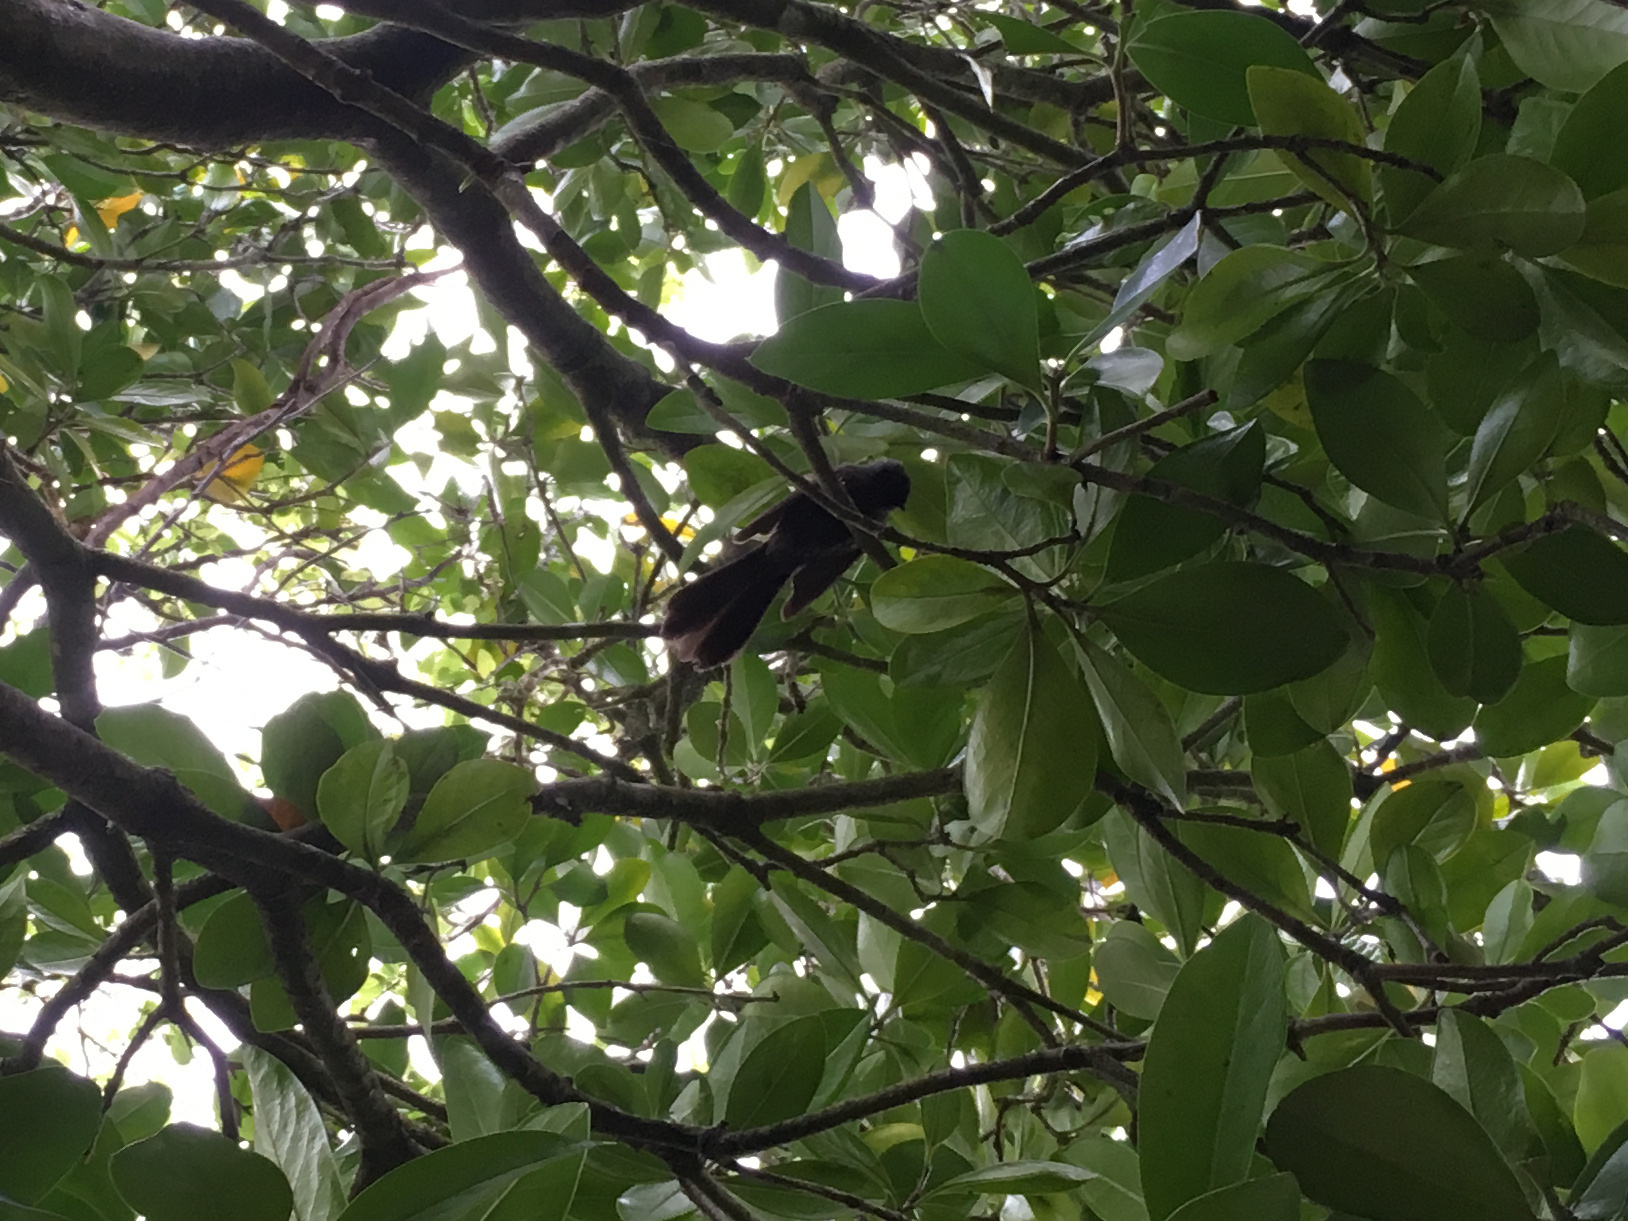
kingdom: Animalia
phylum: Chordata
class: Aves
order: Passeriformes
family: Rhipiduridae
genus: Rhipidura
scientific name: Rhipidura fuliginosa
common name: New zealand fantail
